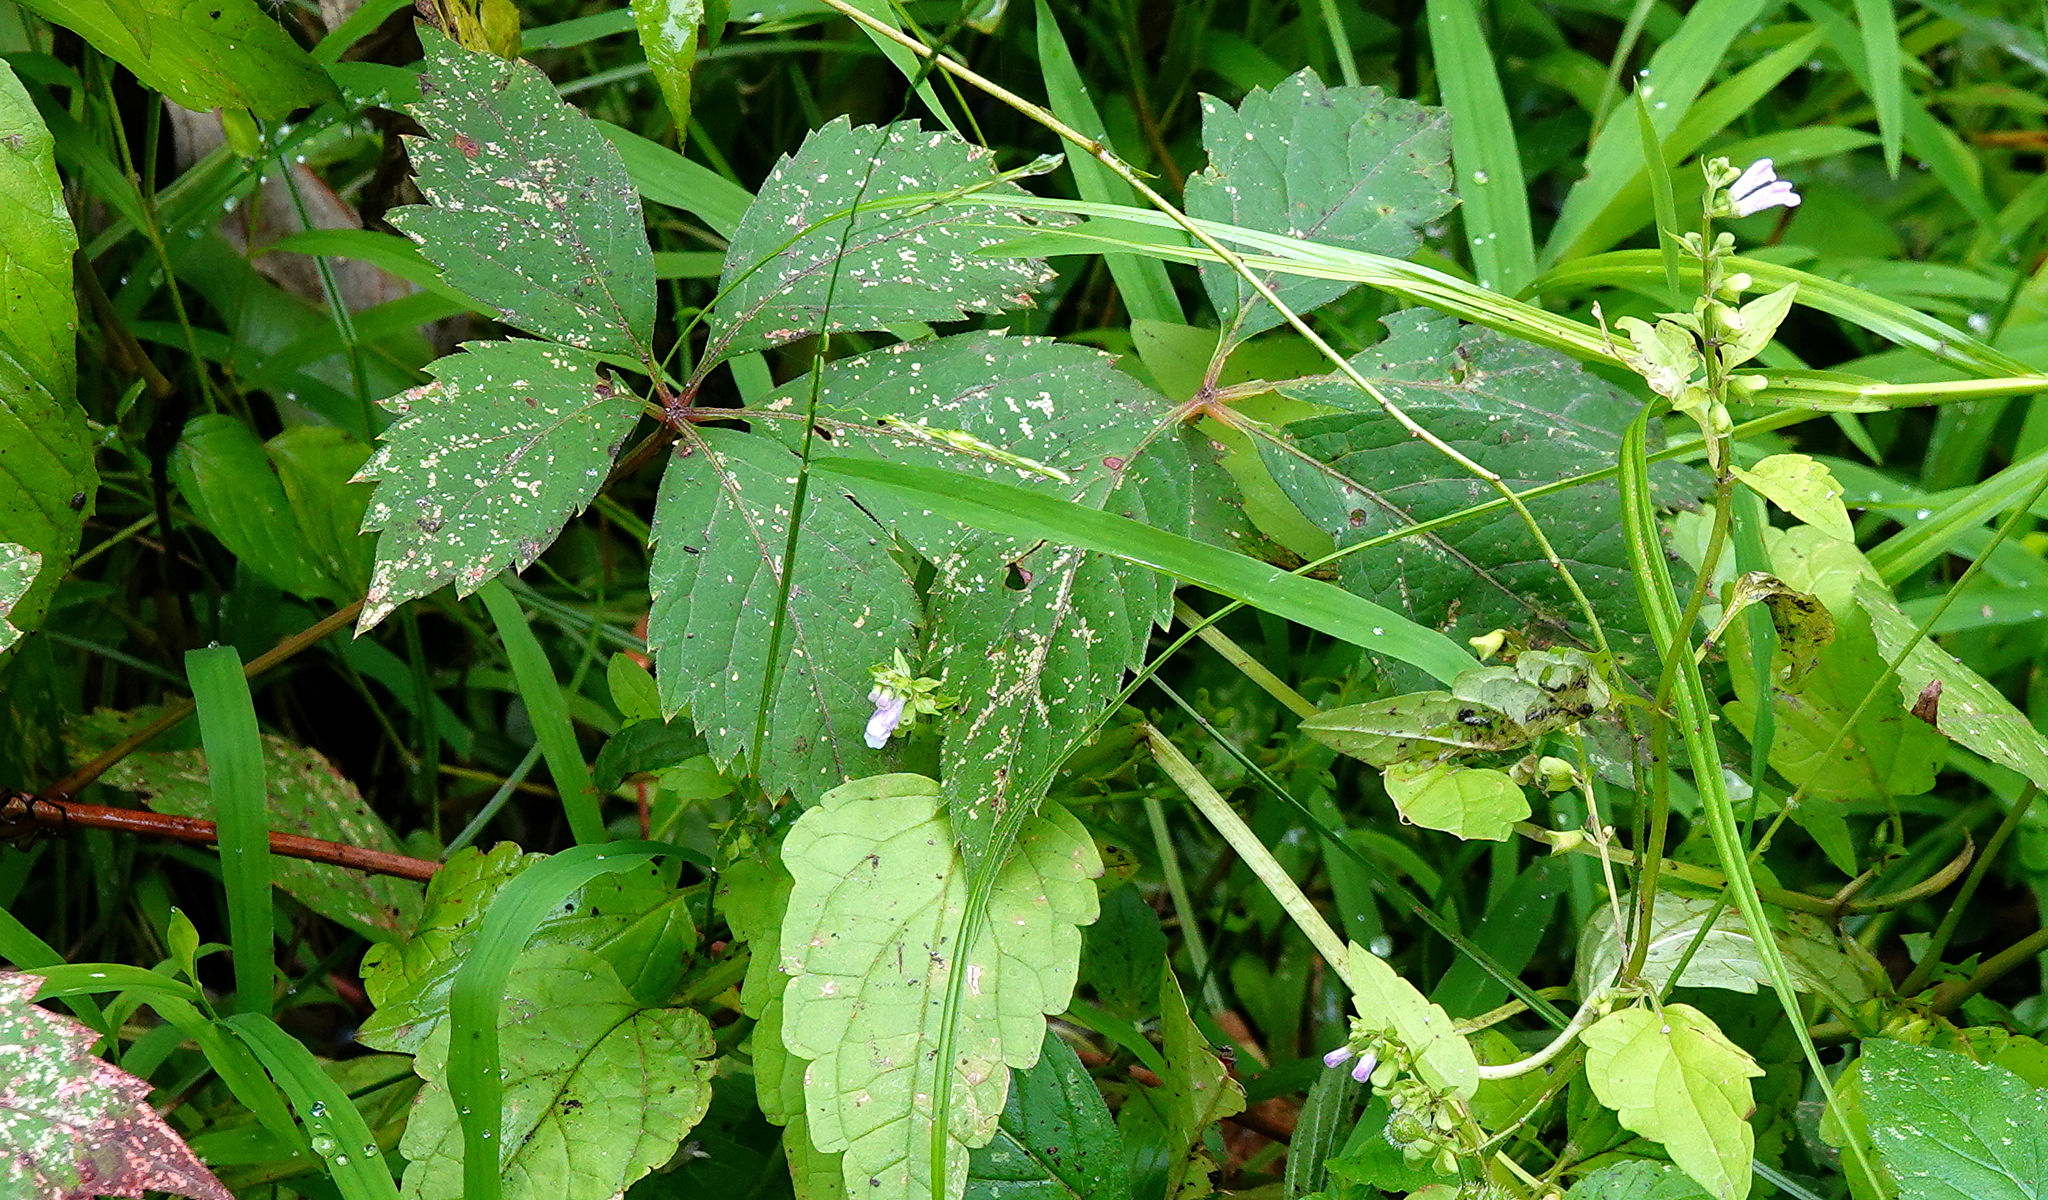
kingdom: Plantae
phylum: Tracheophyta
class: Magnoliopsida
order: Lamiales
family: Lamiaceae
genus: Scutellaria
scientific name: Scutellaria lateriflora
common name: Blue skullcap
